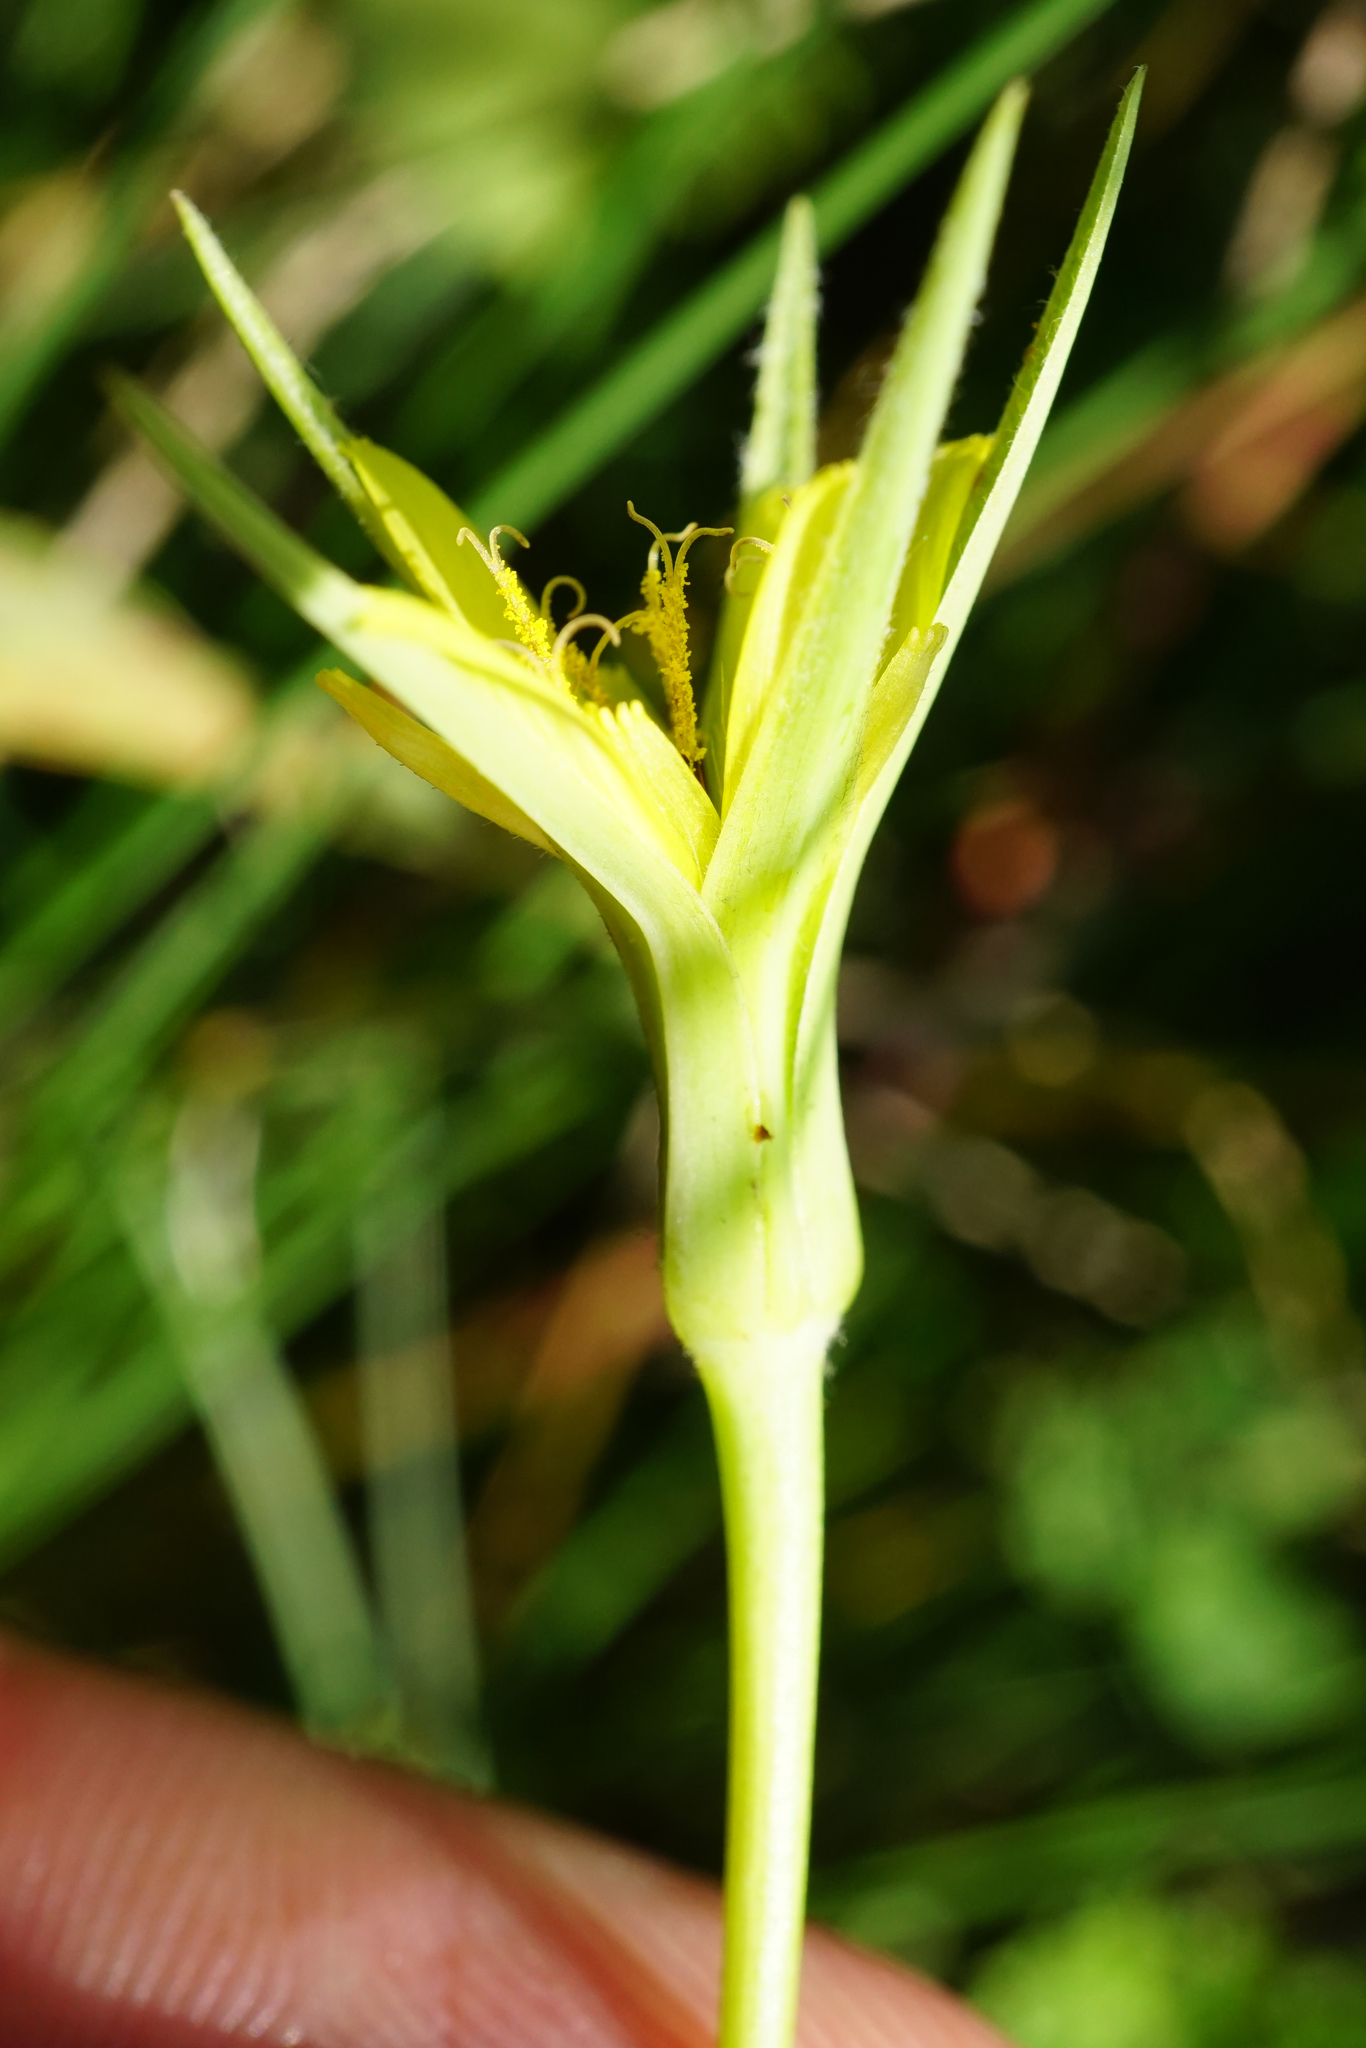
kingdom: Plantae
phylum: Tracheophyta
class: Magnoliopsida
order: Asterales
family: Asteraceae
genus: Tragopogon
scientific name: Tragopogon minor
